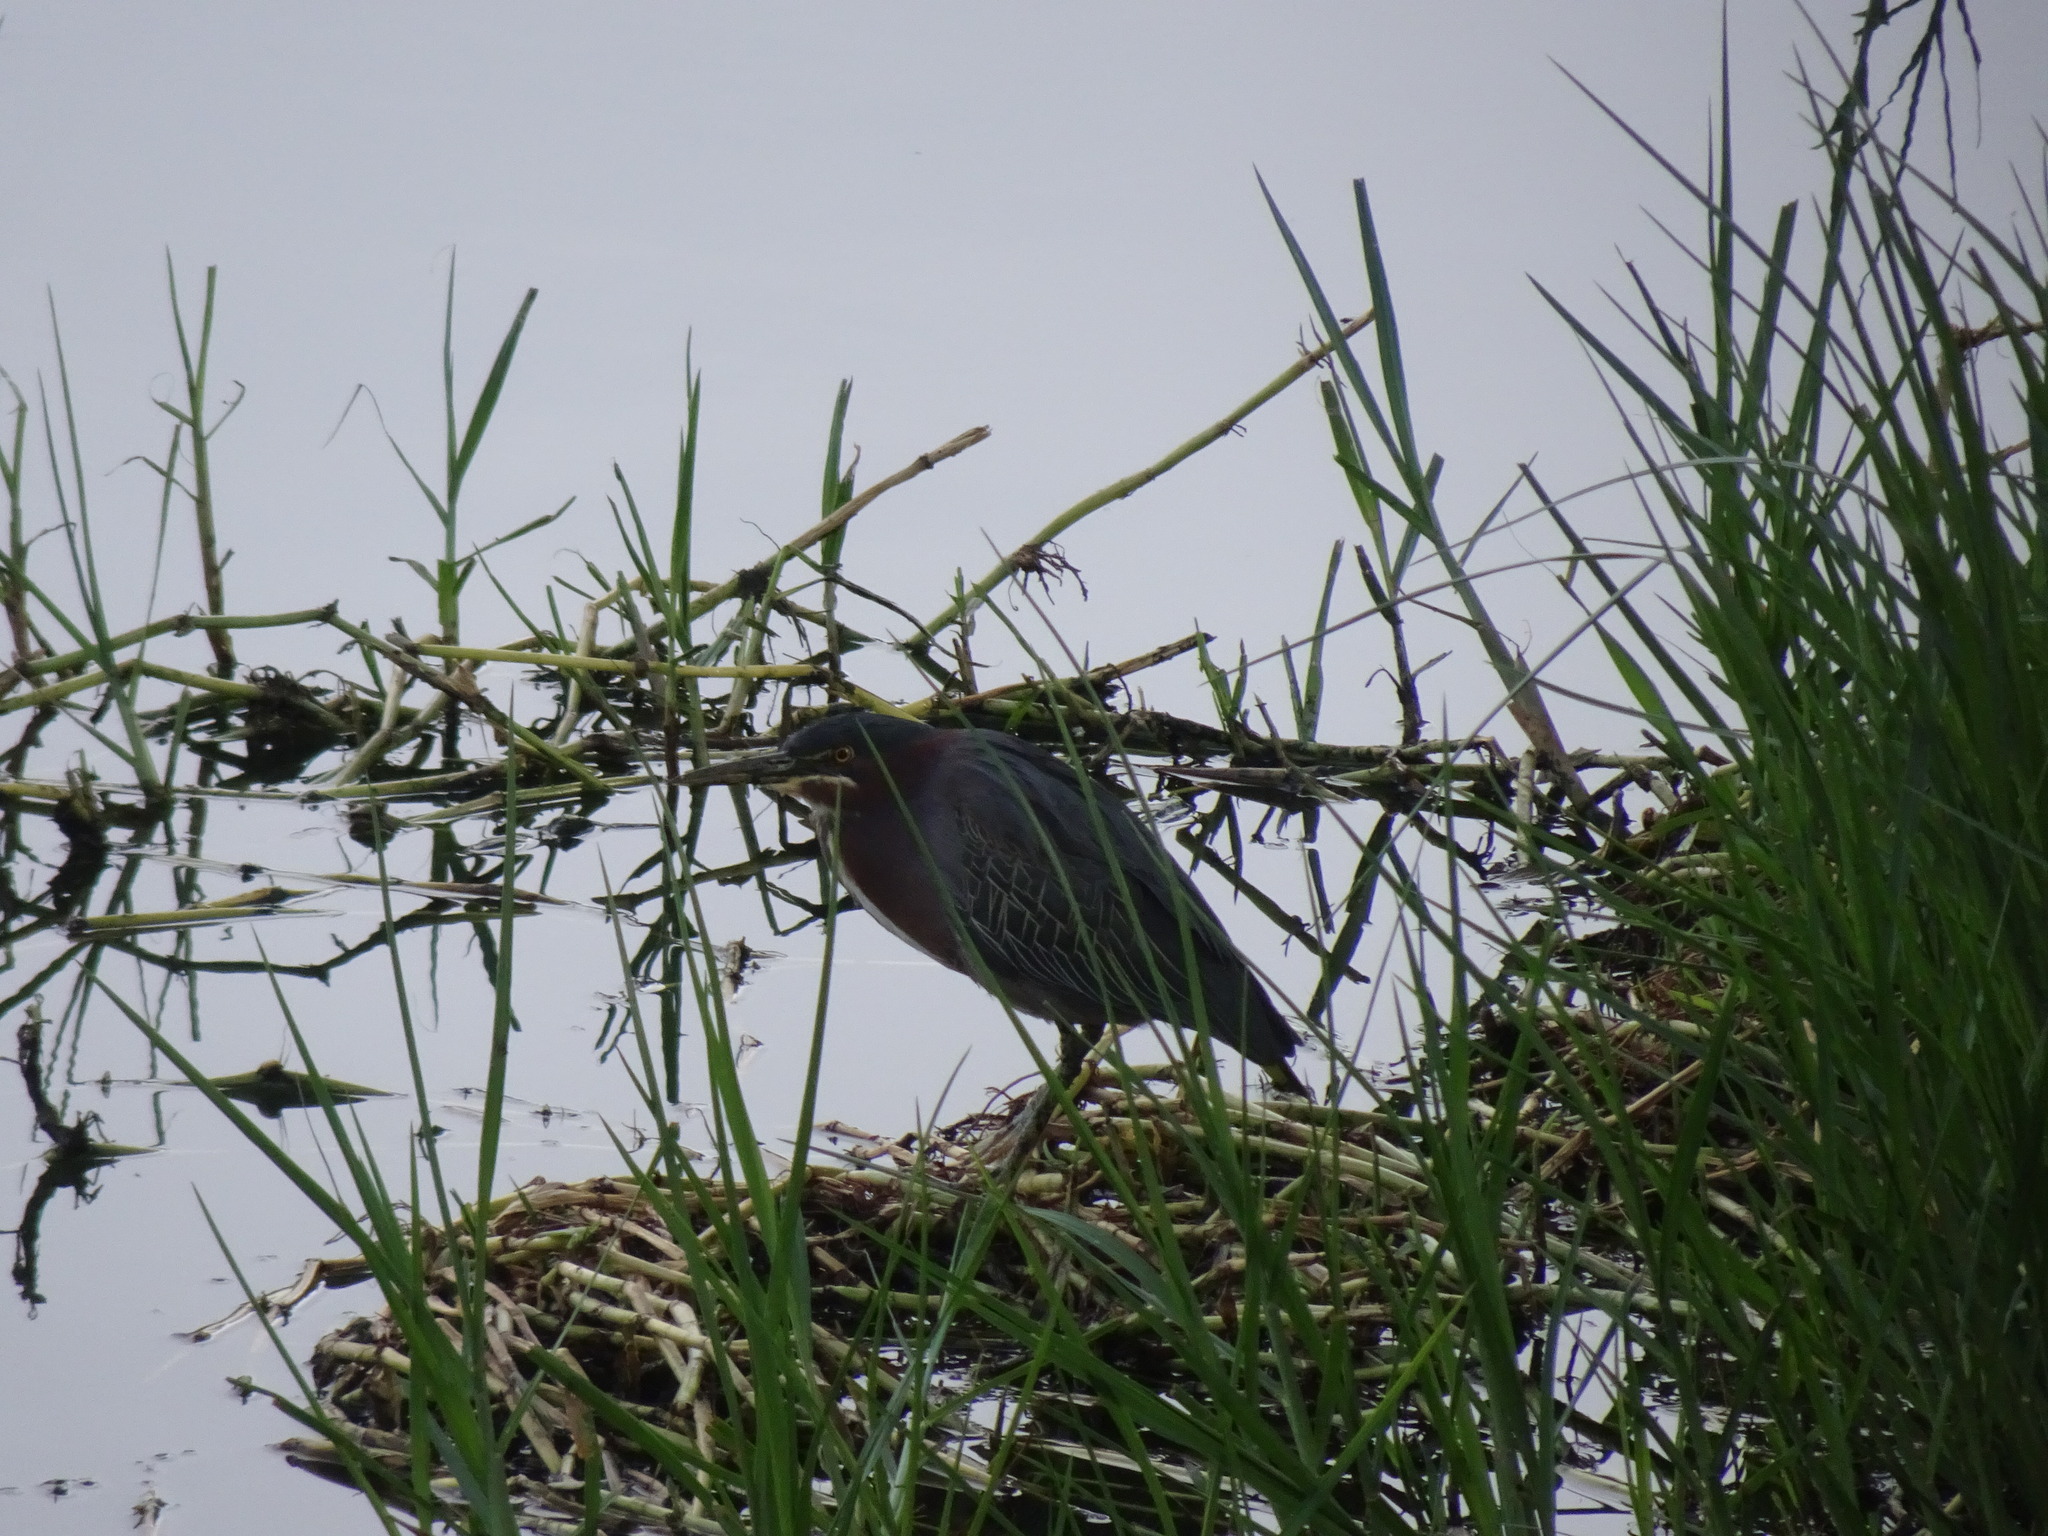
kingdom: Animalia
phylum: Chordata
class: Aves
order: Pelecaniformes
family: Ardeidae
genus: Butorides
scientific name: Butorides virescens
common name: Green heron
